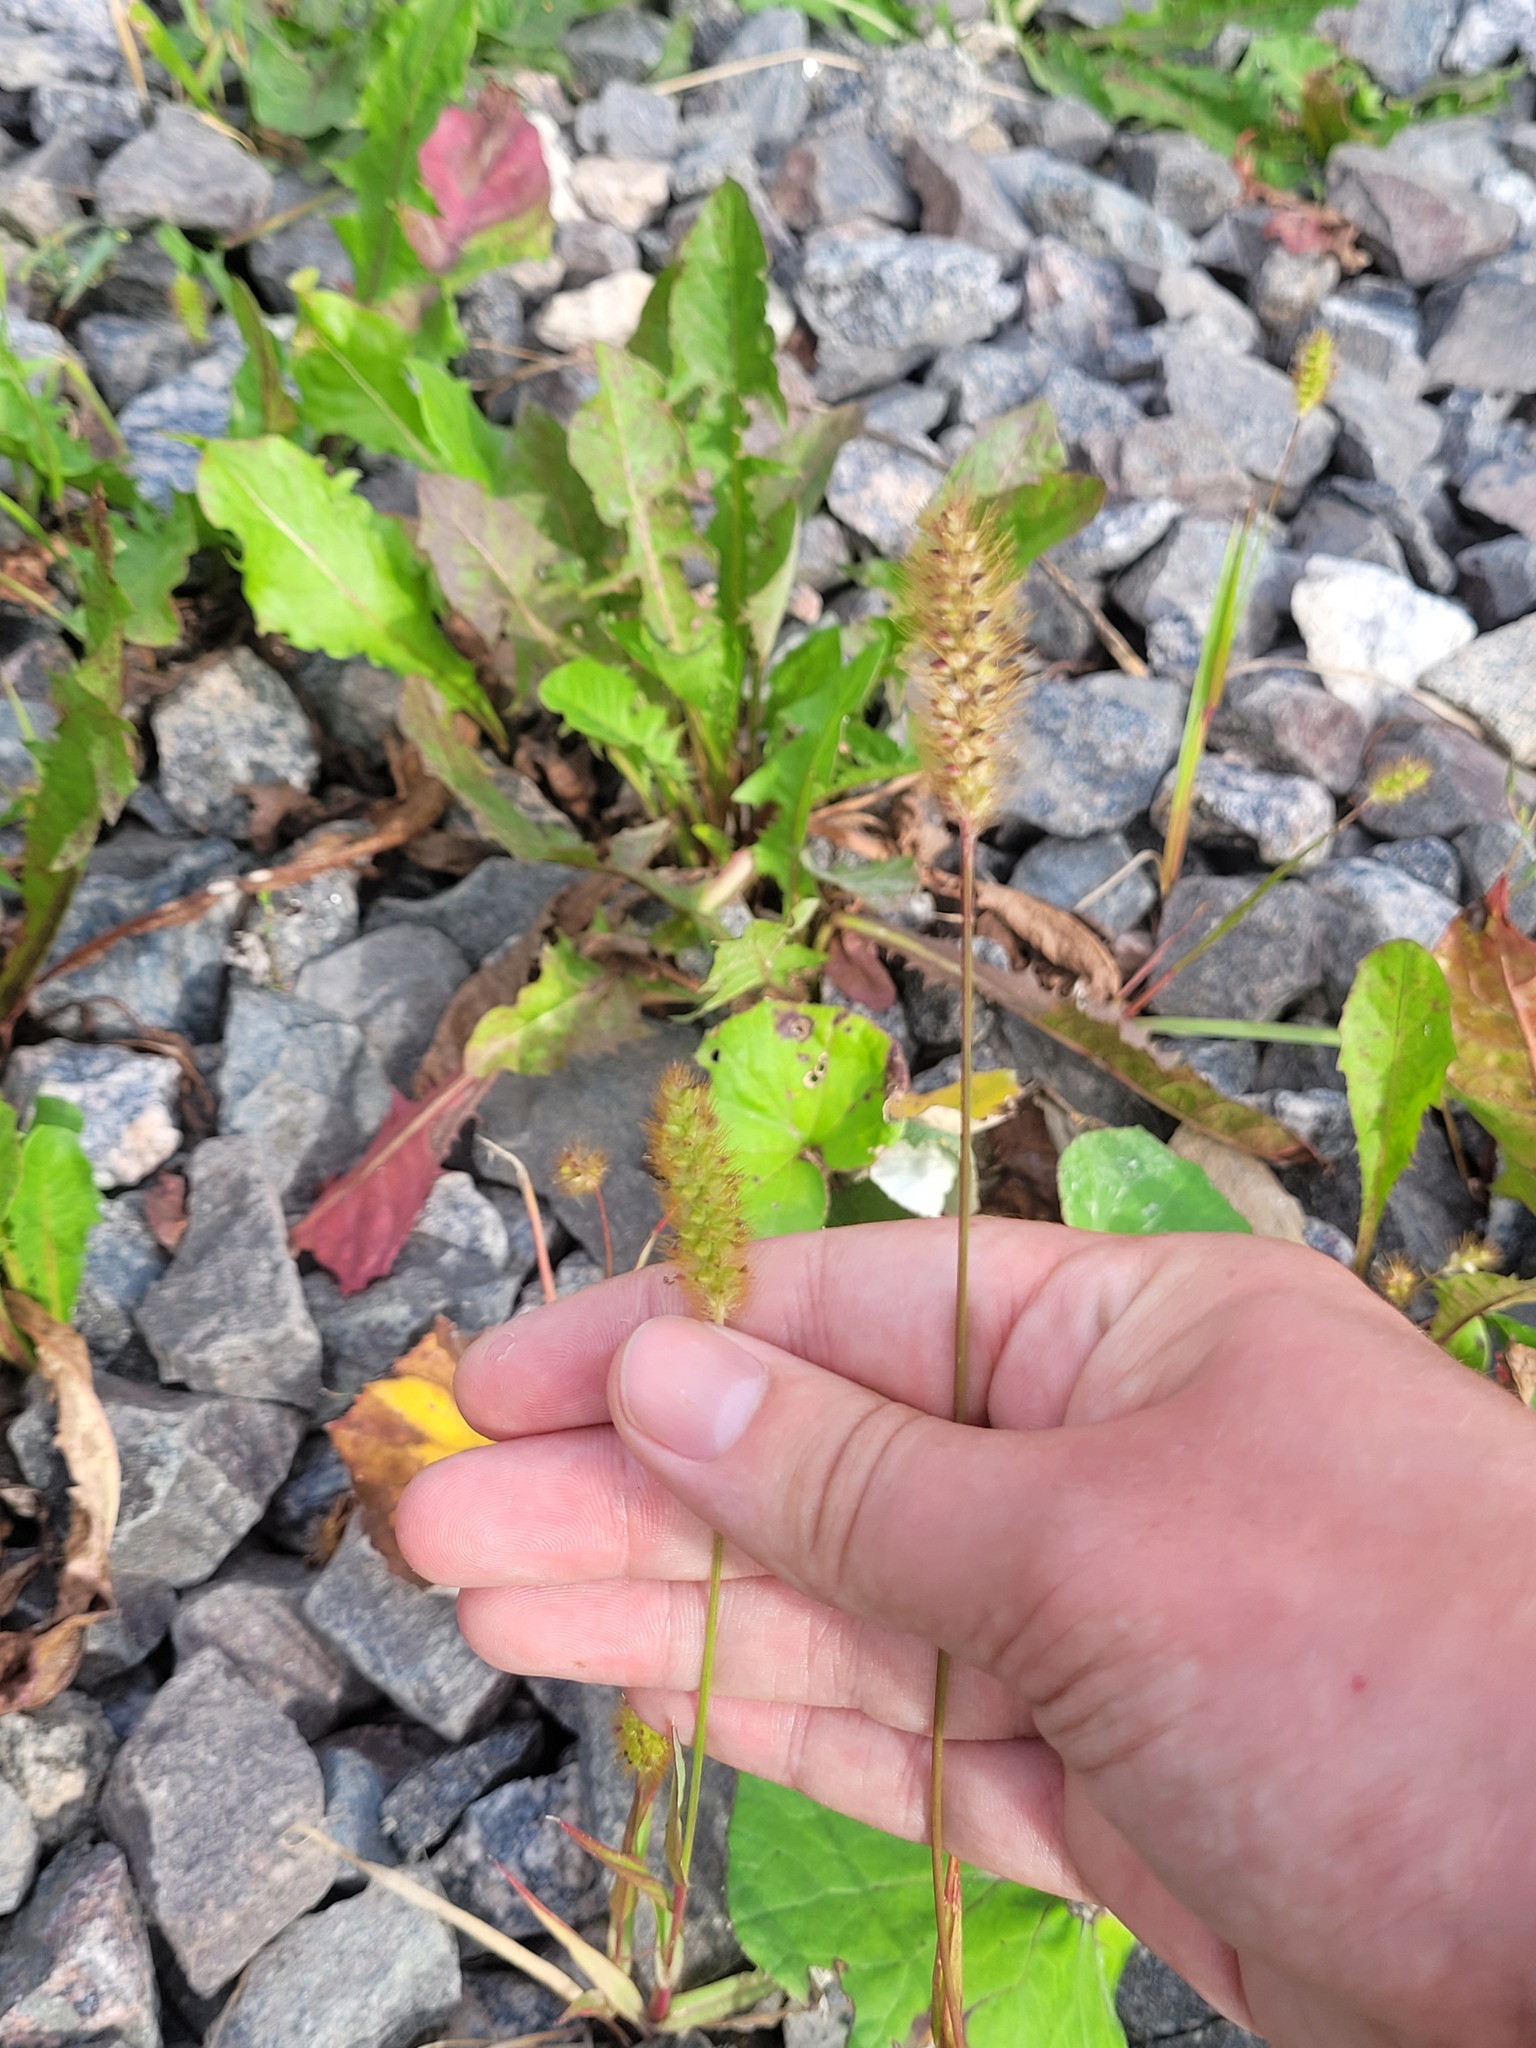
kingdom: Plantae
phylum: Tracheophyta
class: Liliopsida
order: Poales
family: Poaceae
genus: Setaria
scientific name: Setaria pumila
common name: Yellow bristle-grass
